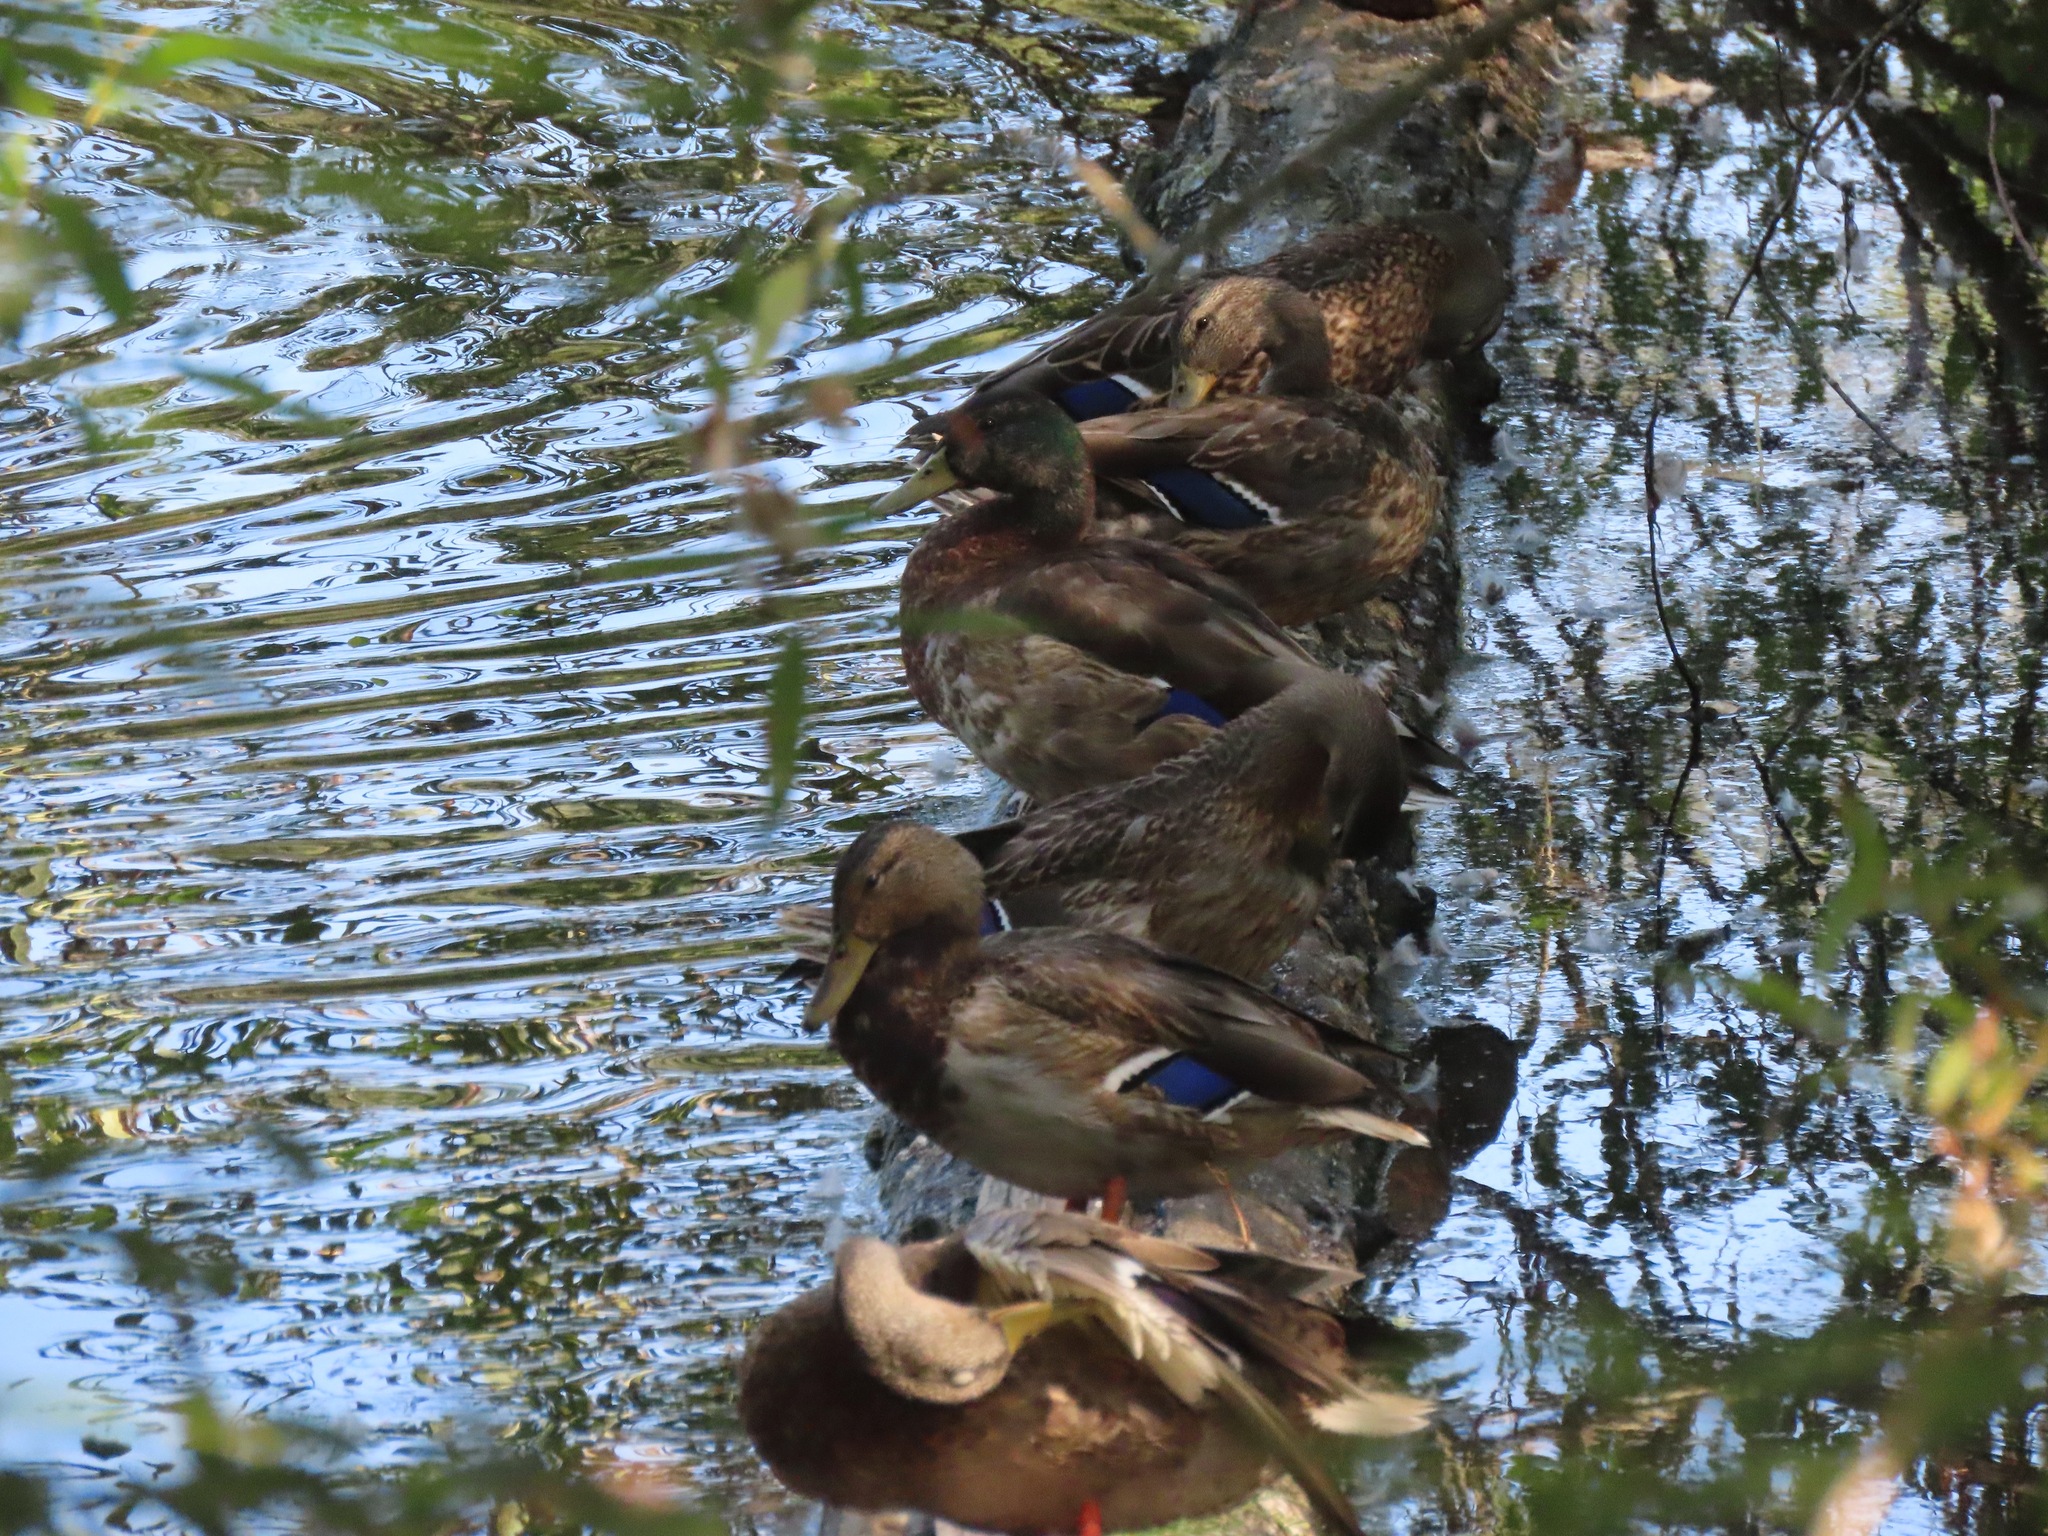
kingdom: Animalia
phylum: Chordata
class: Aves
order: Anseriformes
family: Anatidae
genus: Anas
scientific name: Anas platyrhynchos
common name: Mallard
